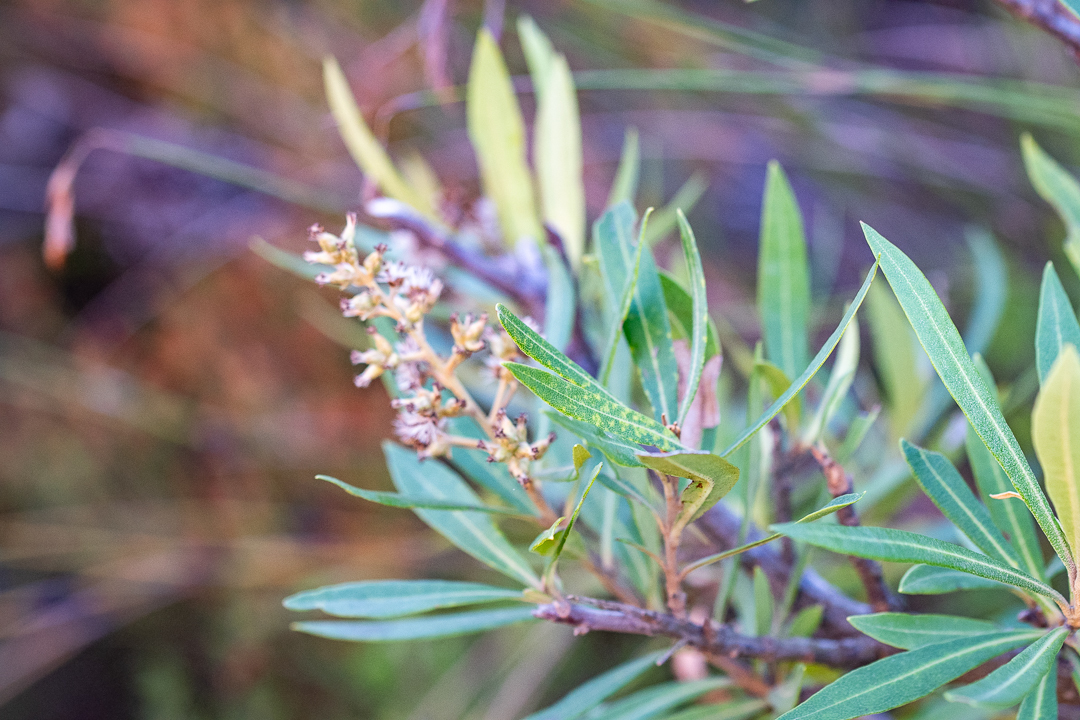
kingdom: Plantae
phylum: Tracheophyta
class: Magnoliopsida
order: Asterales
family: Asteraceae
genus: Brachylaena
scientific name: Brachylaena neriifolia
